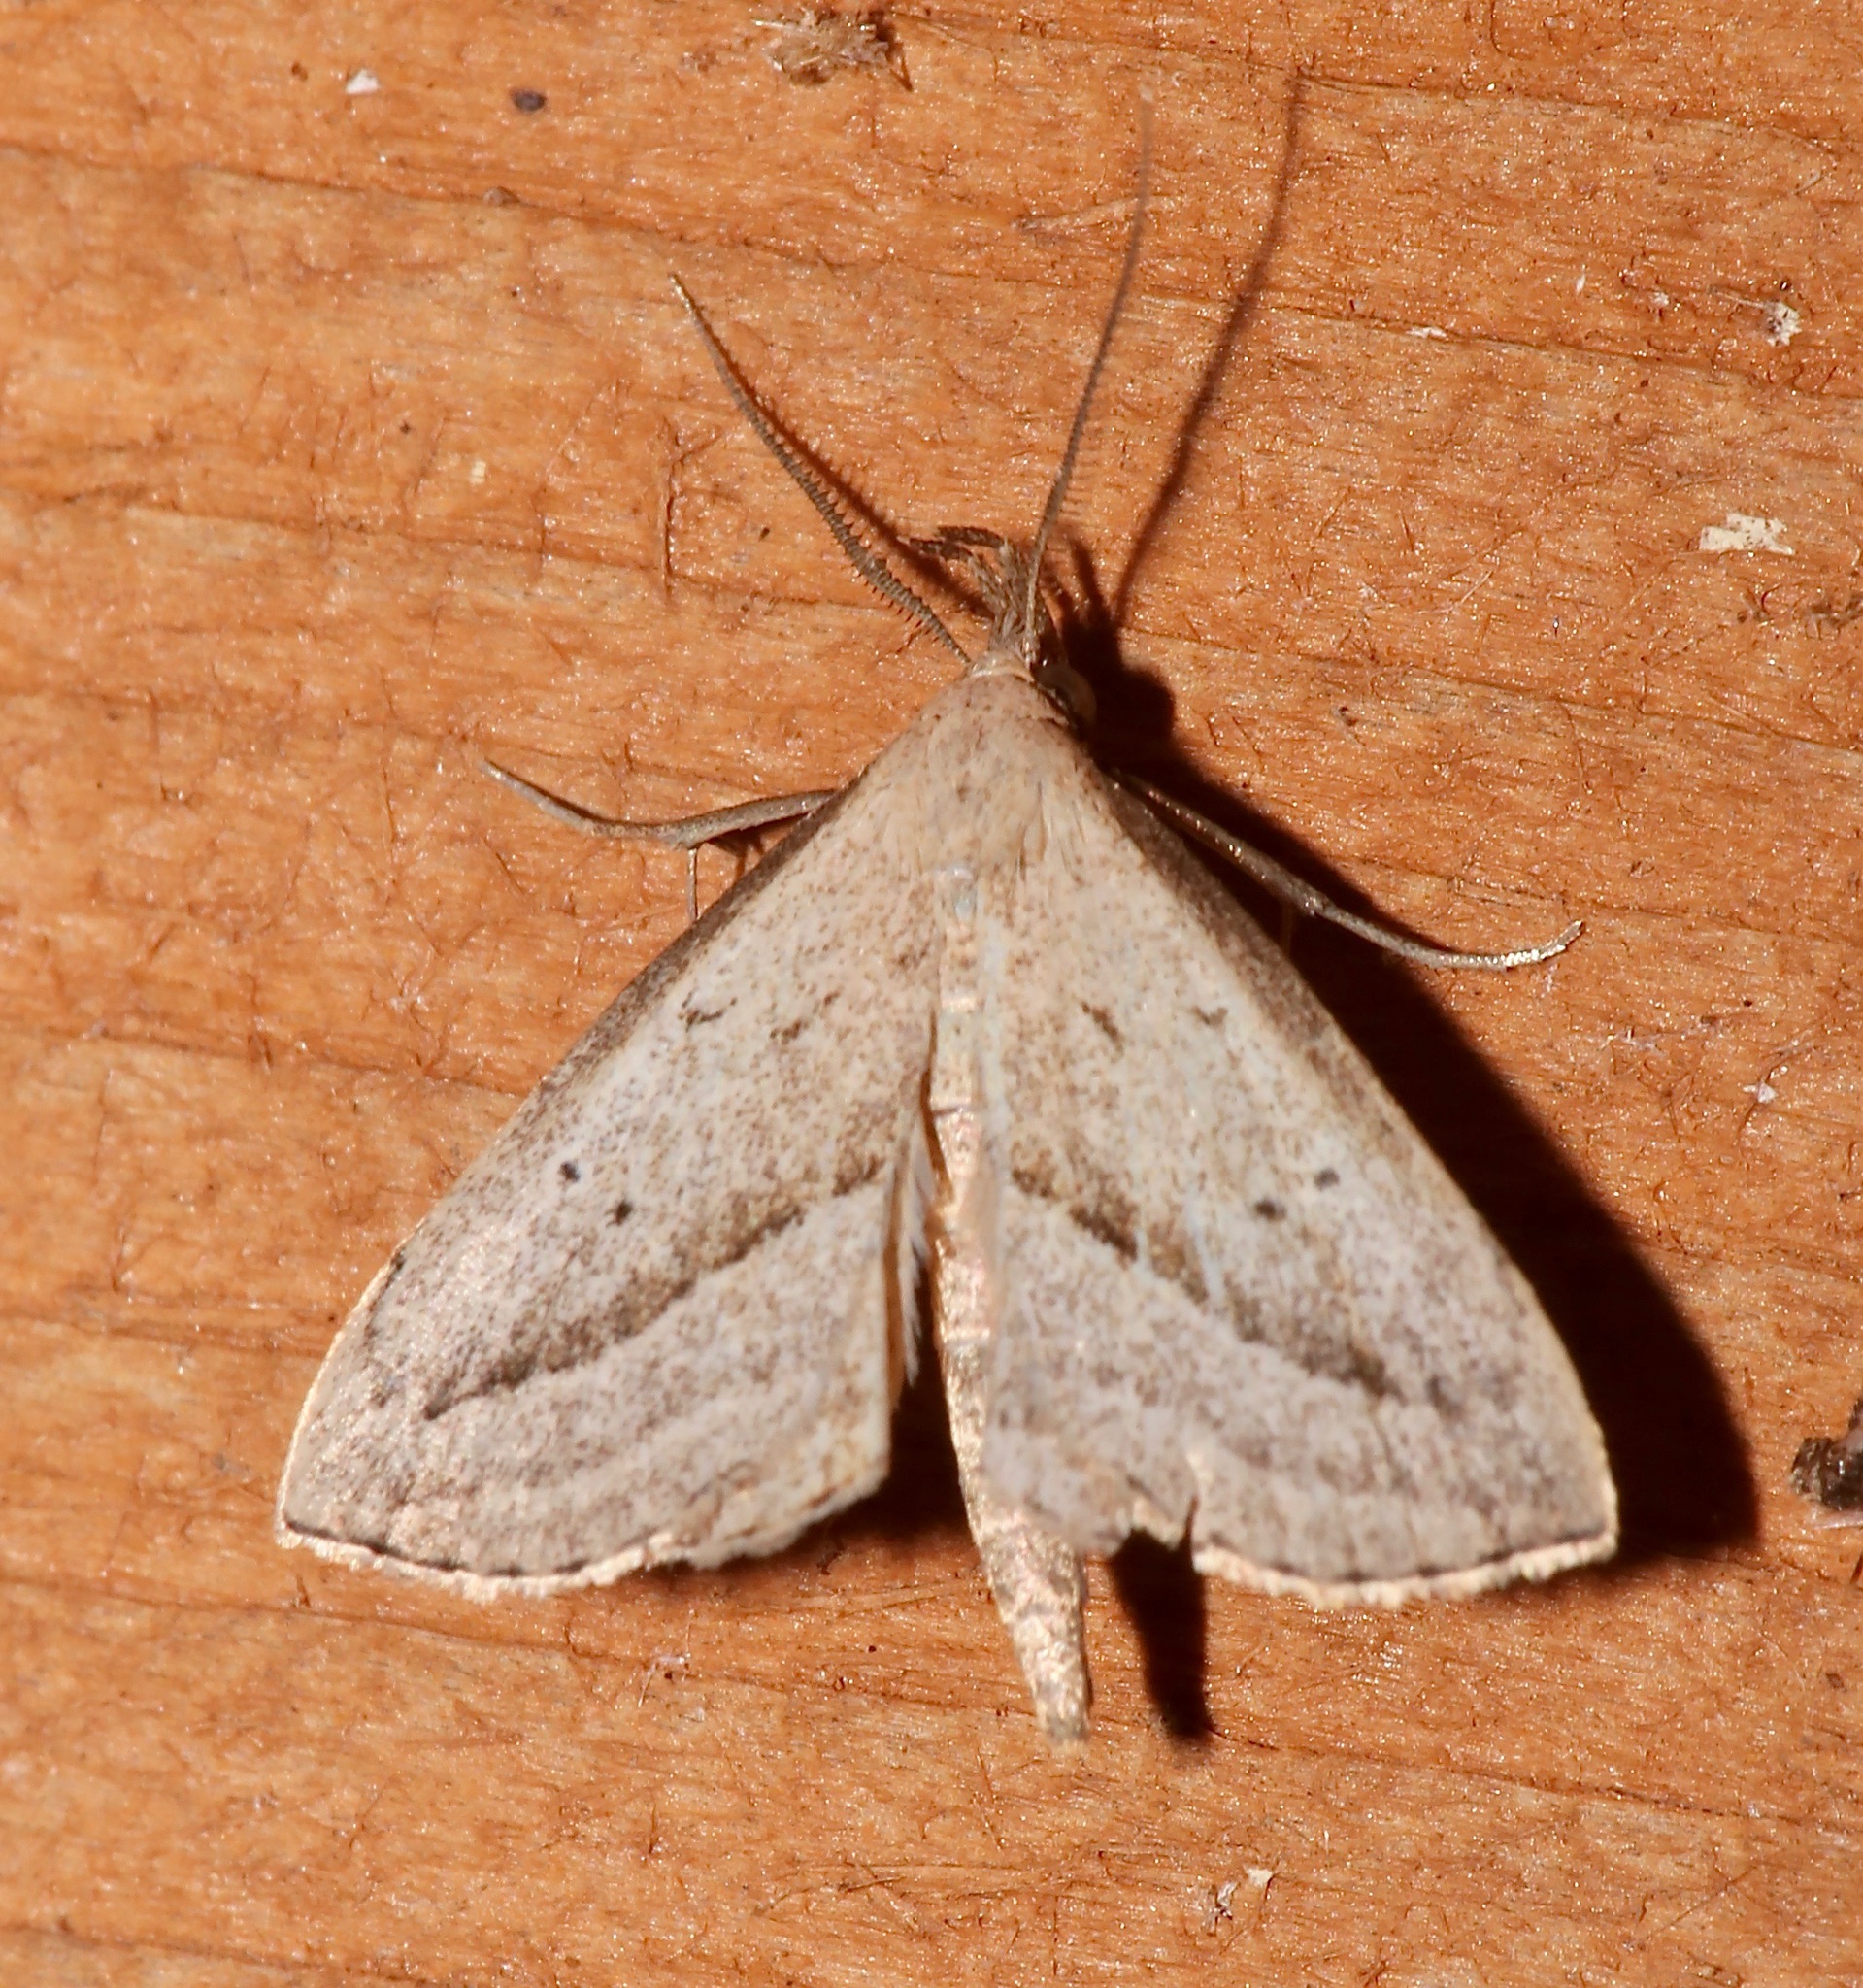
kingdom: Animalia
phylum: Arthropoda
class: Insecta
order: Lepidoptera
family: Erebidae
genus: Macrochilo
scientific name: Macrochilo hypocritalis
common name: Twin-dotted owlet
